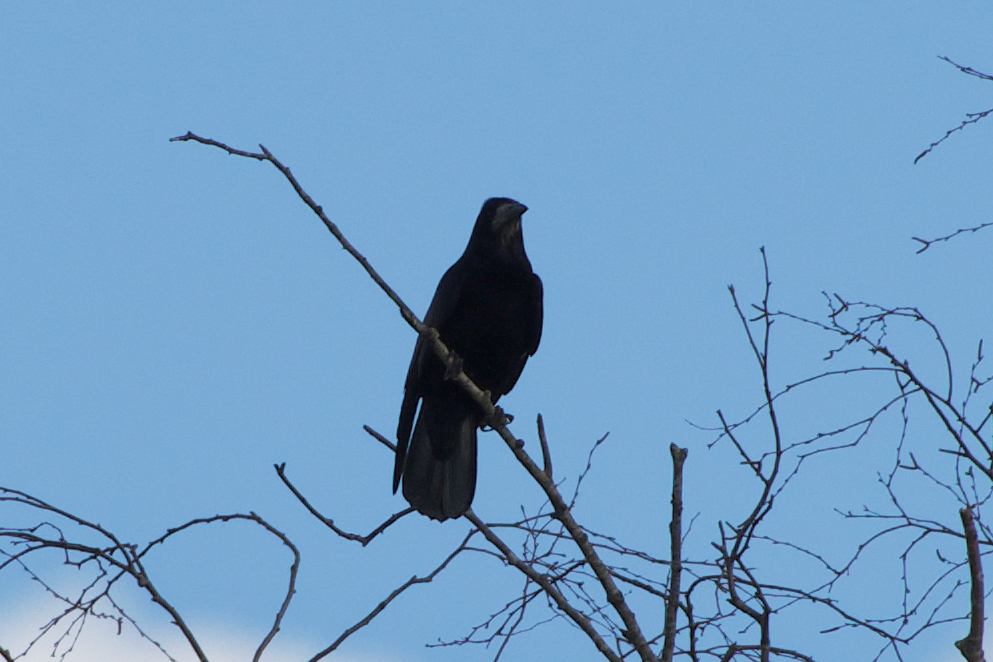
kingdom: Animalia
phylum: Chordata
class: Aves
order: Passeriformes
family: Corvidae
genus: Corvus
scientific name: Corvus frugilegus
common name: Rook
